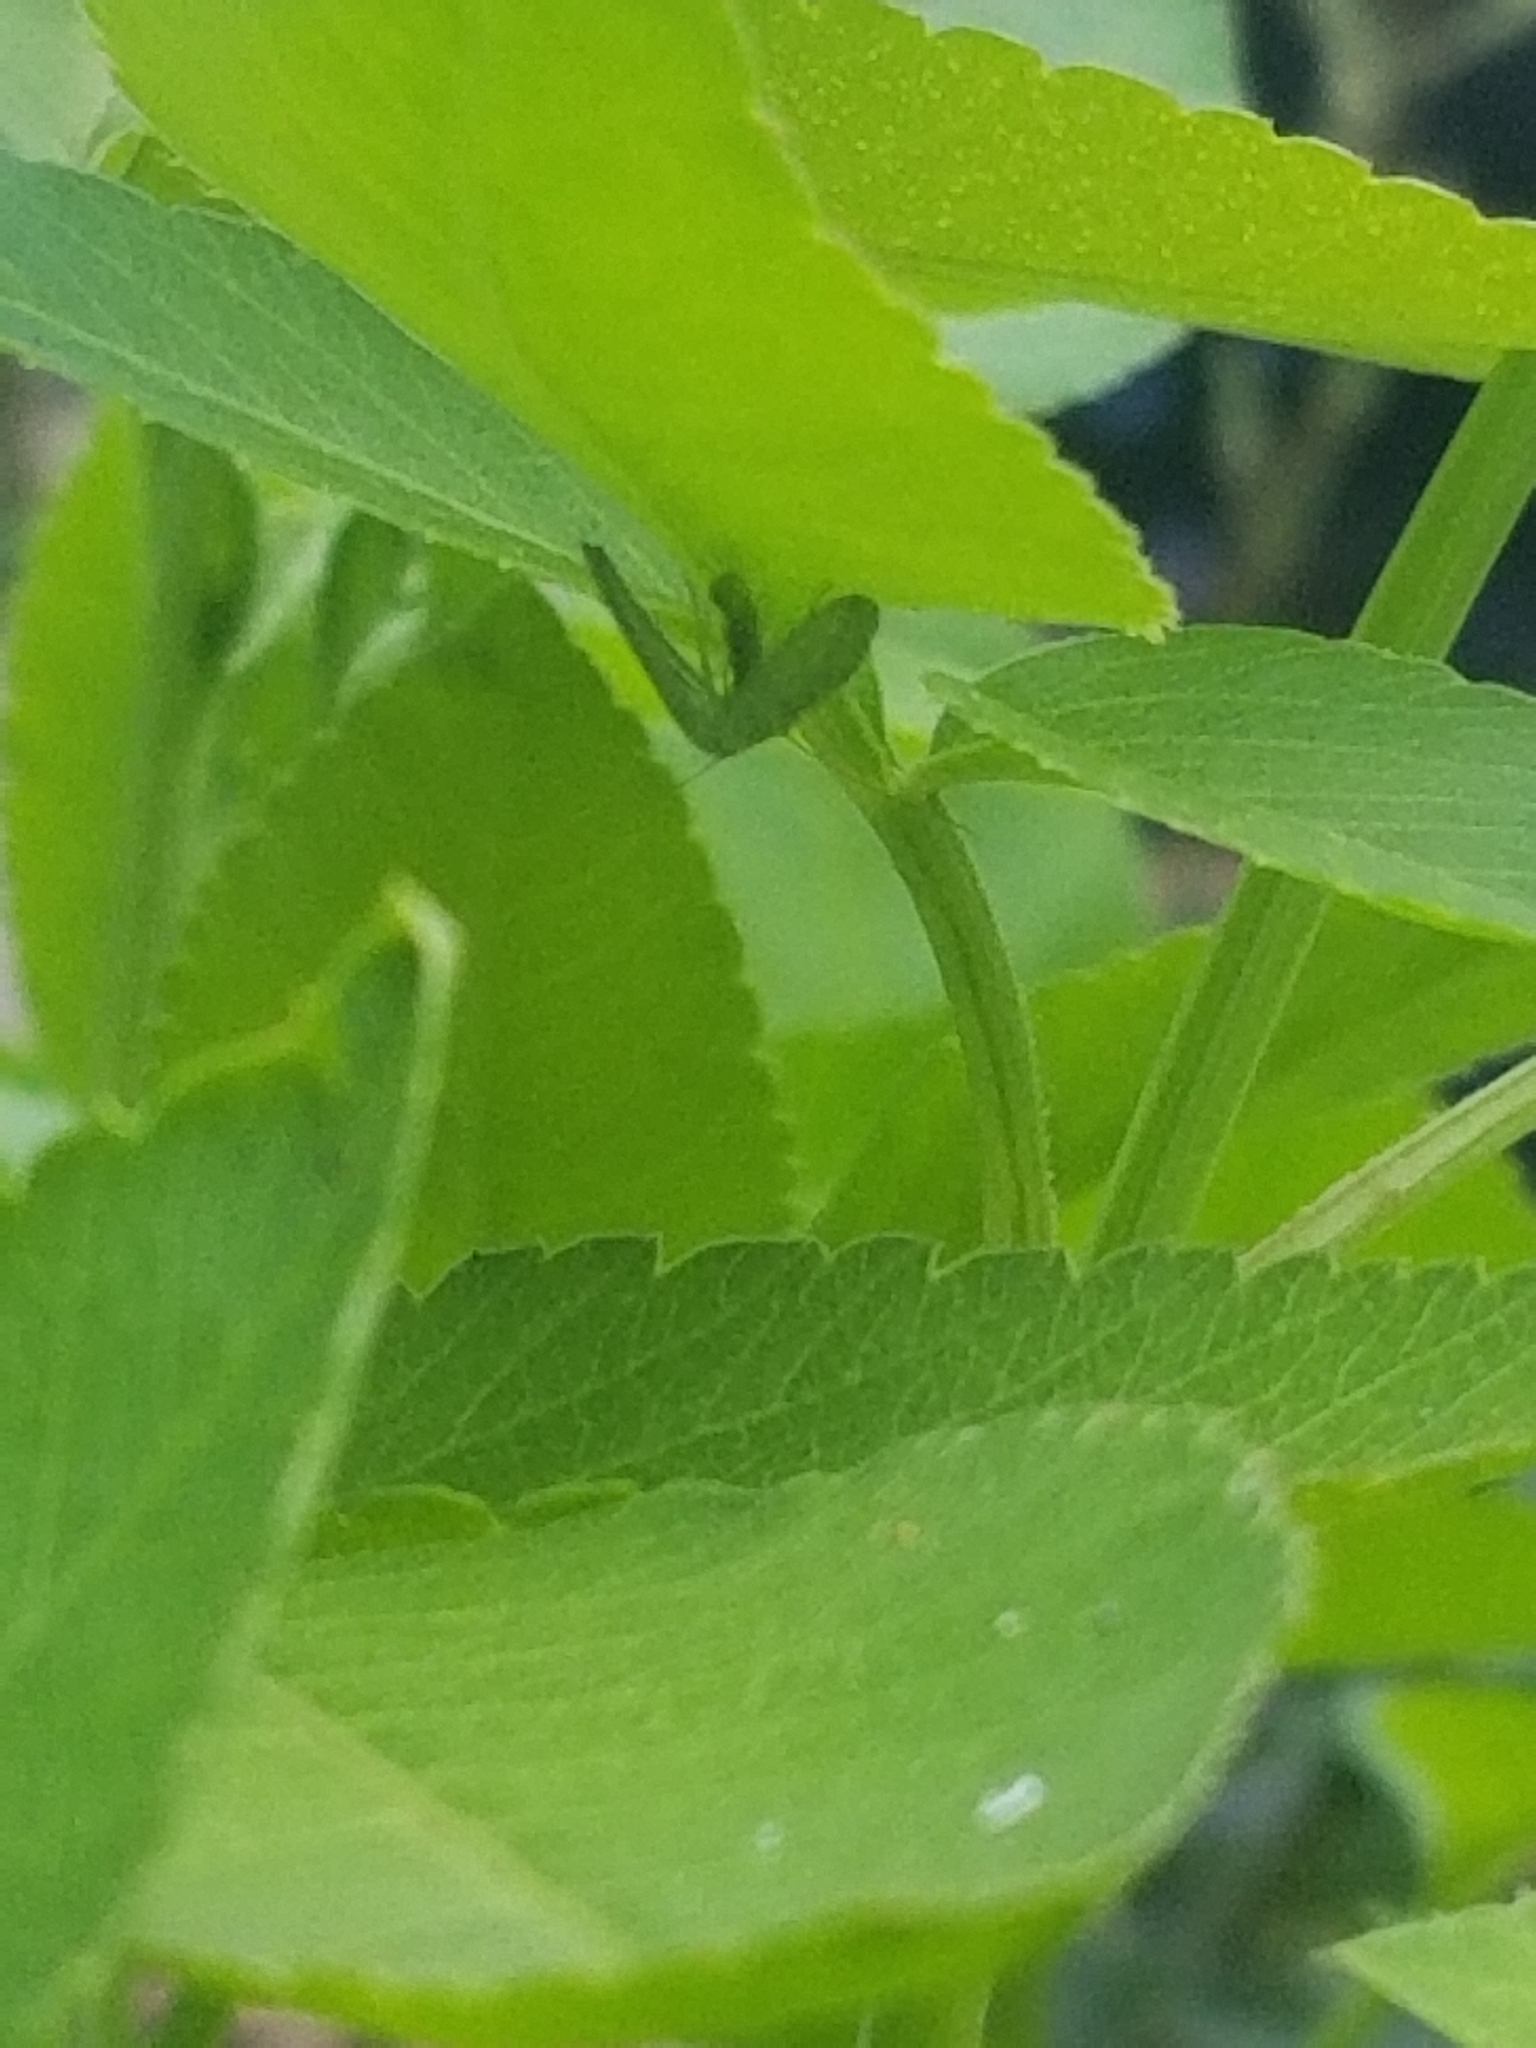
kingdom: Animalia
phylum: Arthropoda
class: Insecta
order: Neuroptera
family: Chrysopidae
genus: Chrysopa
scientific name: Chrysopa oculata
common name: Golden-eyed lacewing
